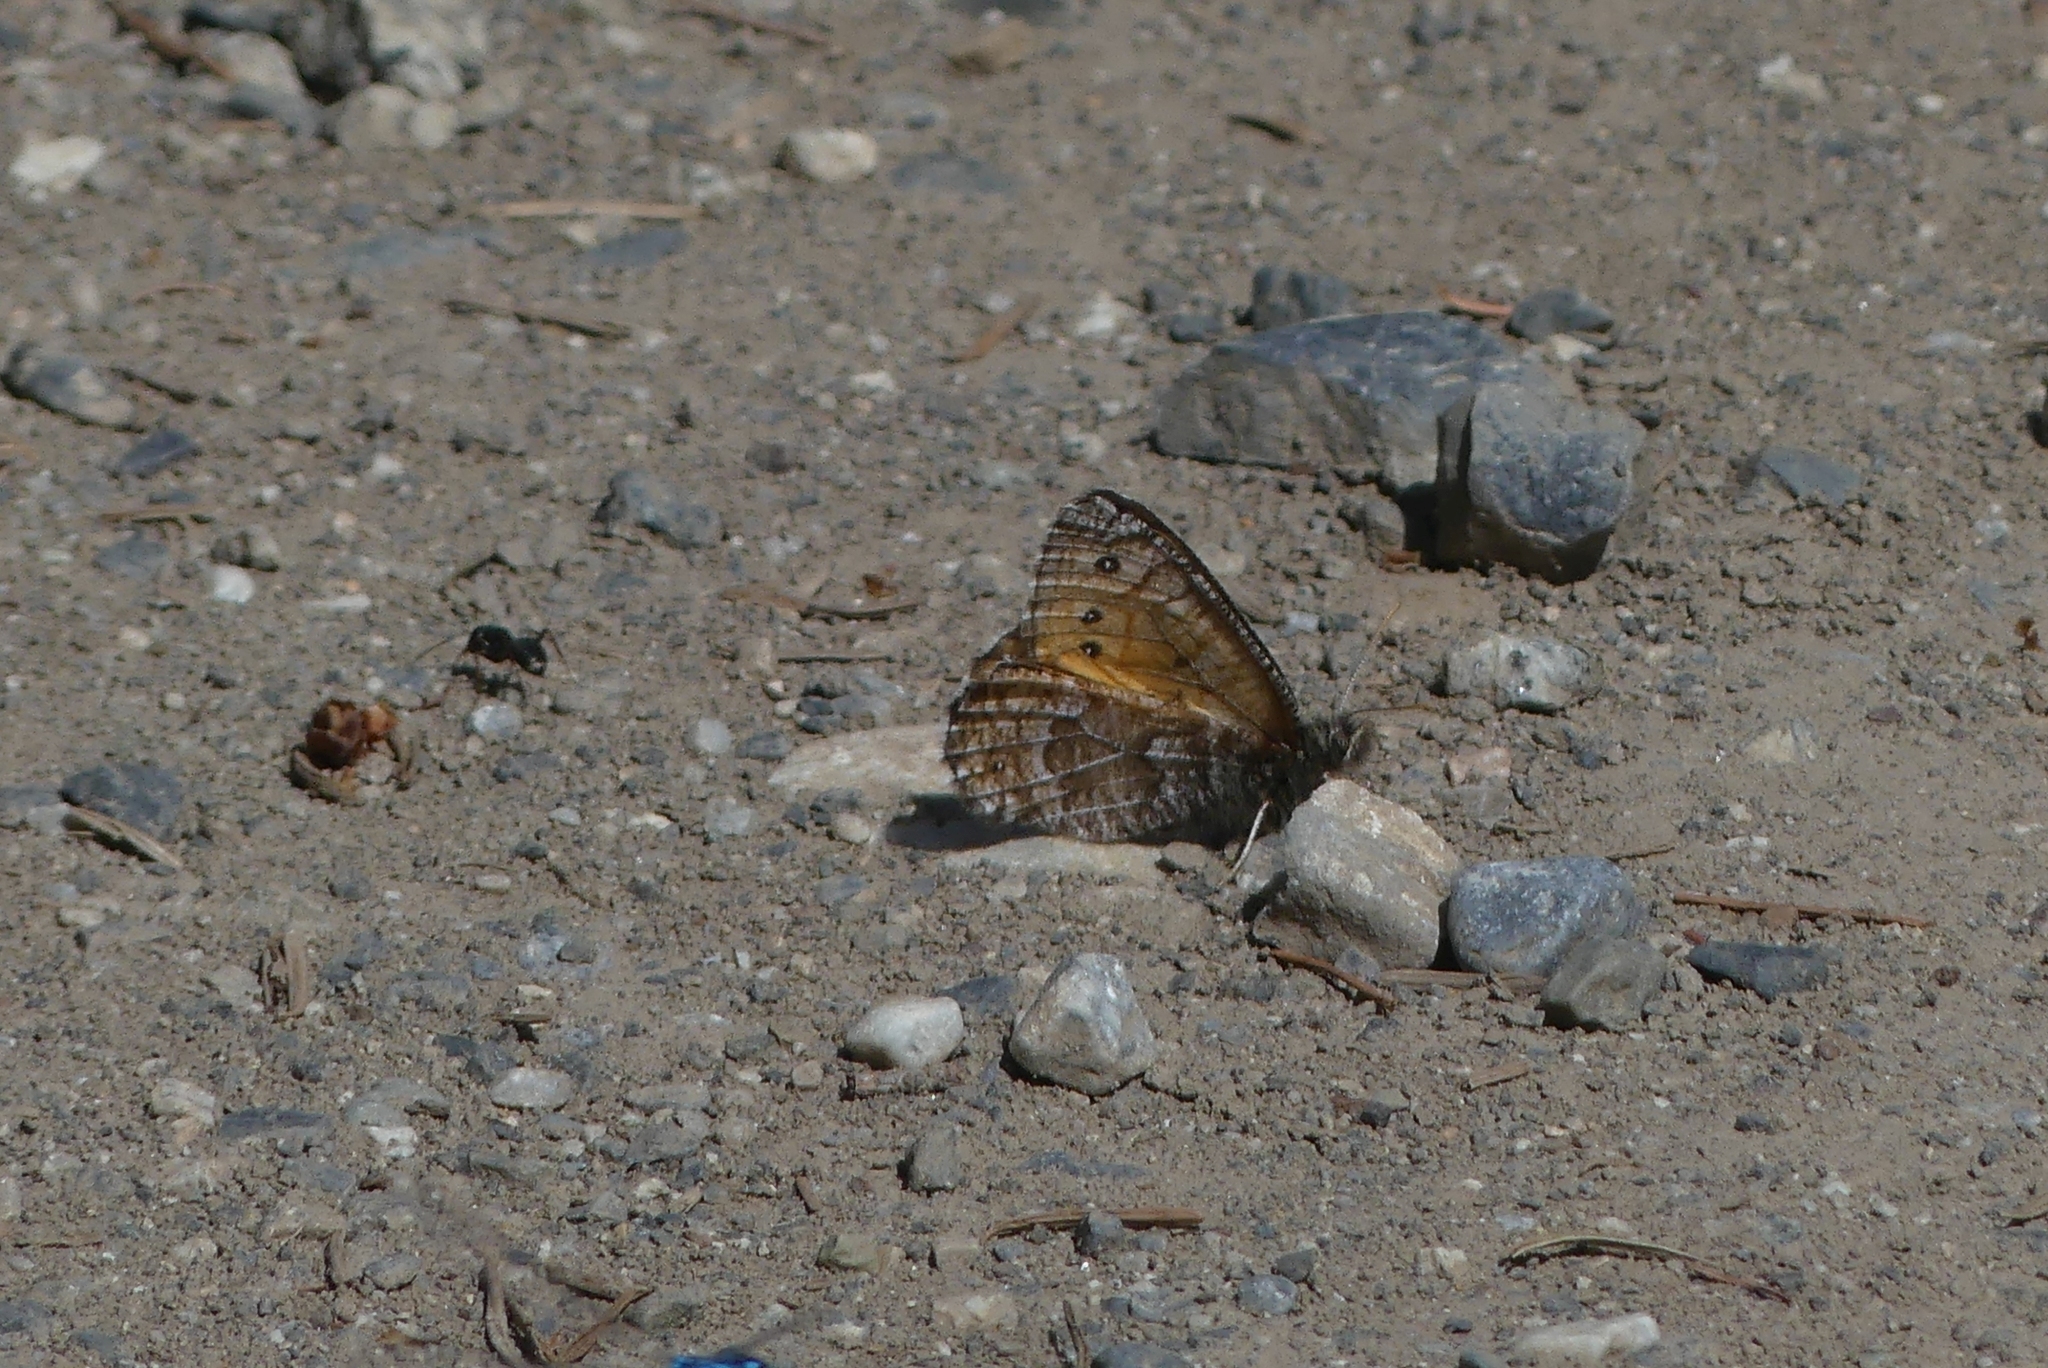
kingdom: Animalia
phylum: Arthropoda
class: Insecta
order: Lepidoptera
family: Nymphalidae
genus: Oeneis
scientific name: Oeneis chryxus
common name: Chryxus arctic
